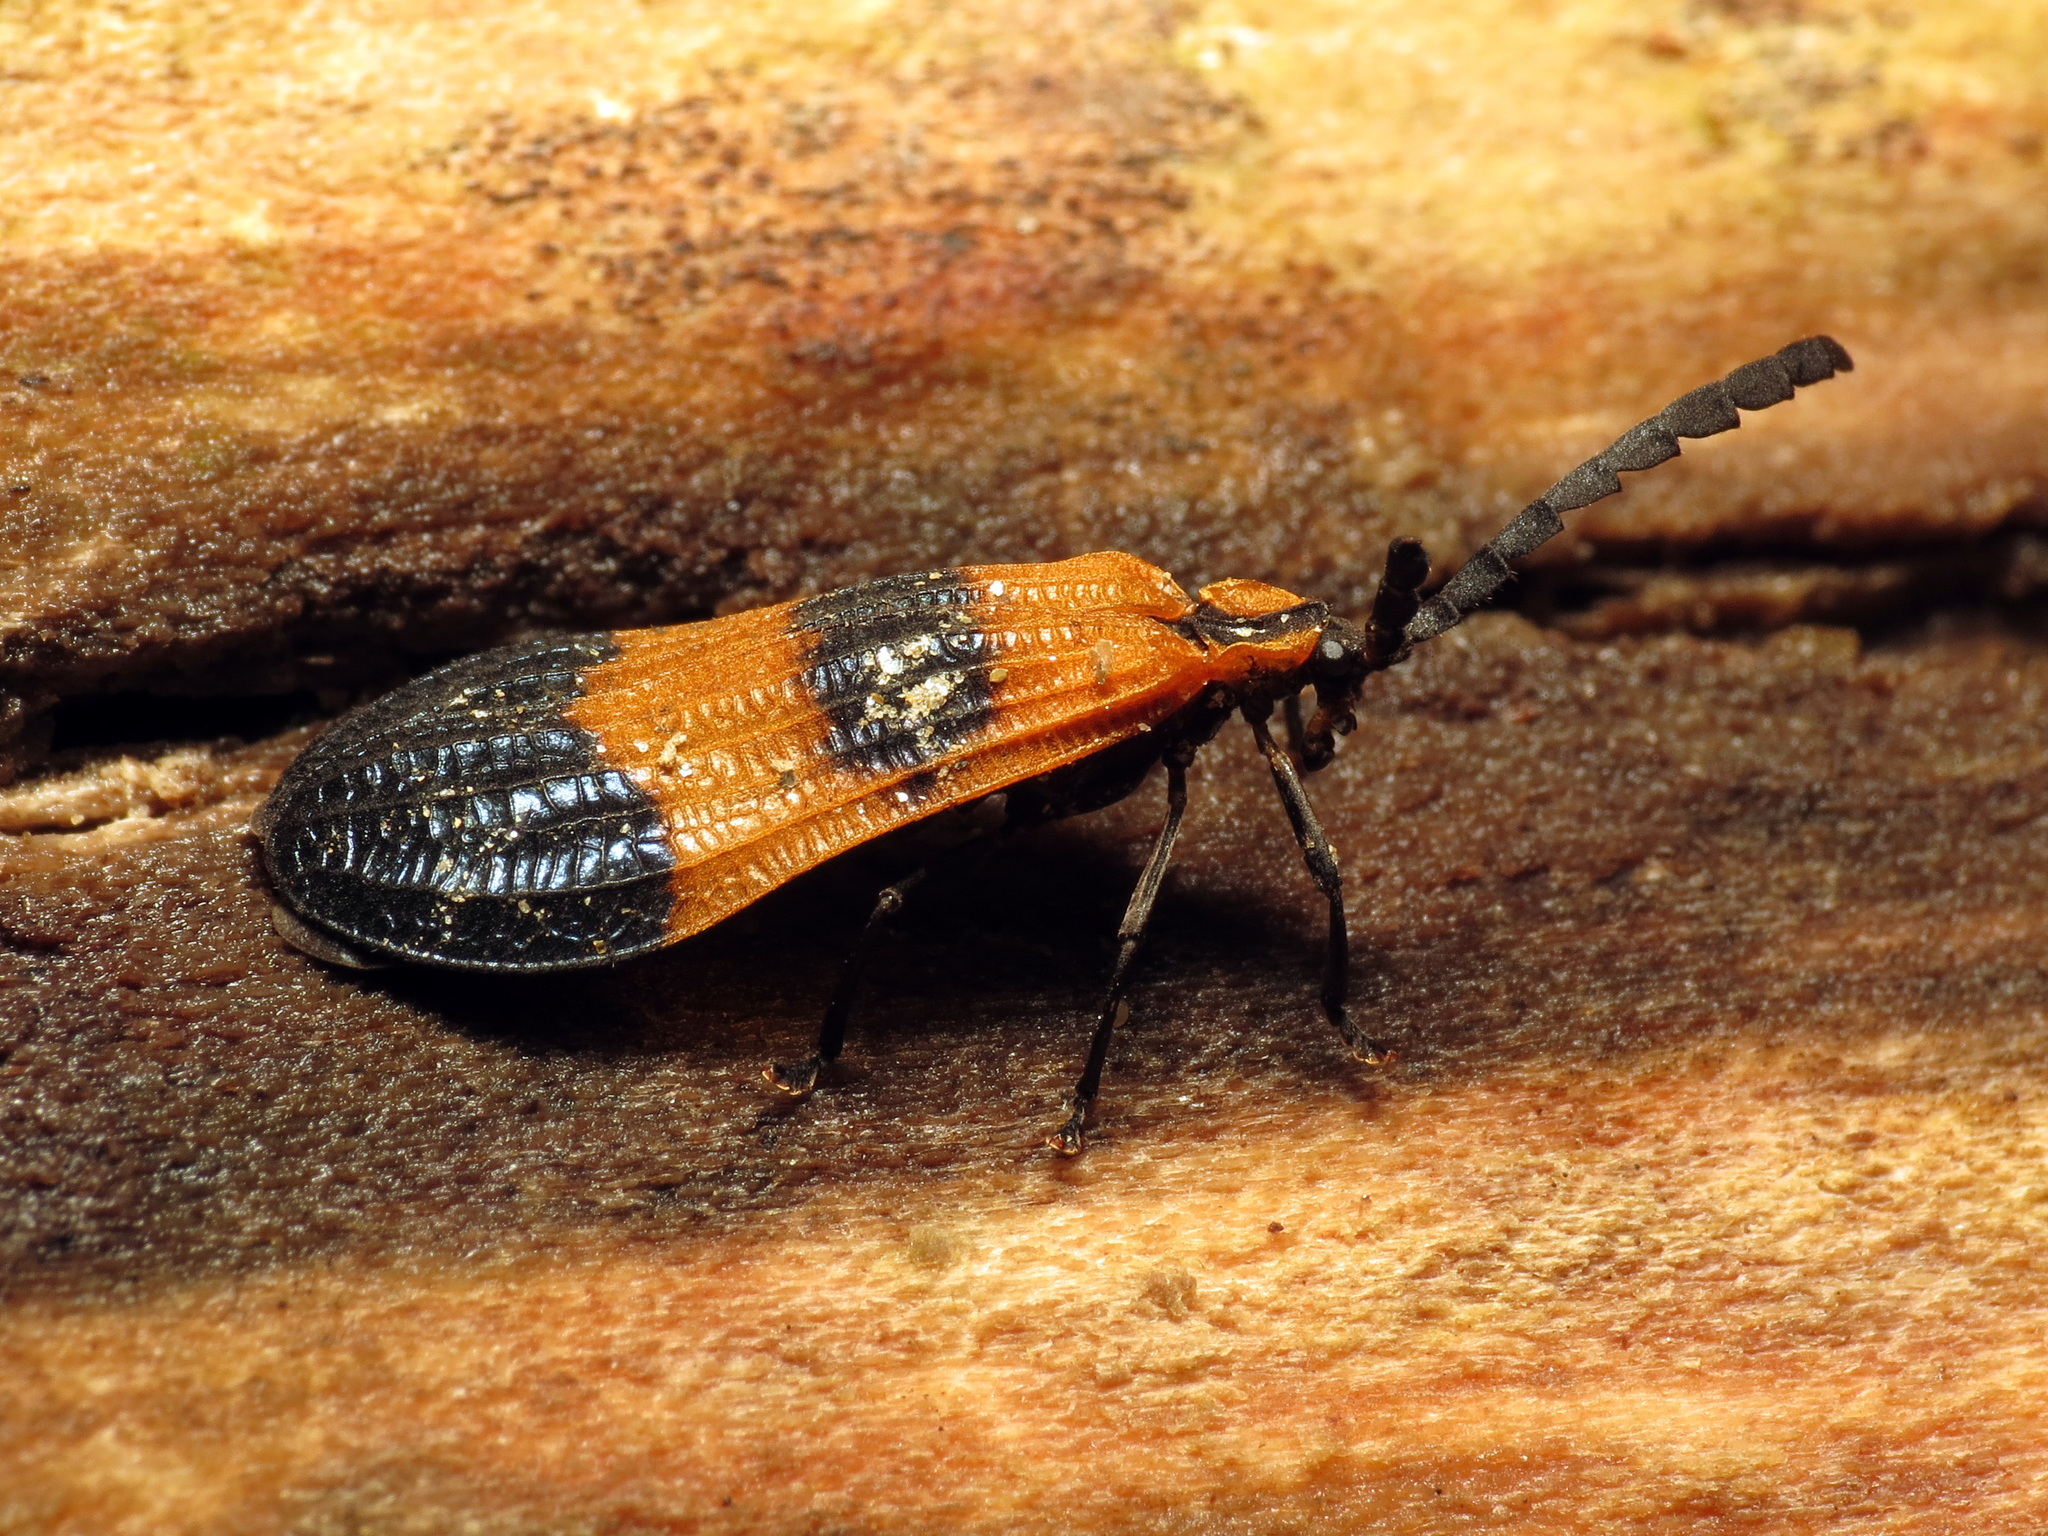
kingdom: Animalia
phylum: Arthropoda
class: Insecta
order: Coleoptera
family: Lycidae
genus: Calopteron
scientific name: Calopteron terminale
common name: End band net-winged beetle
